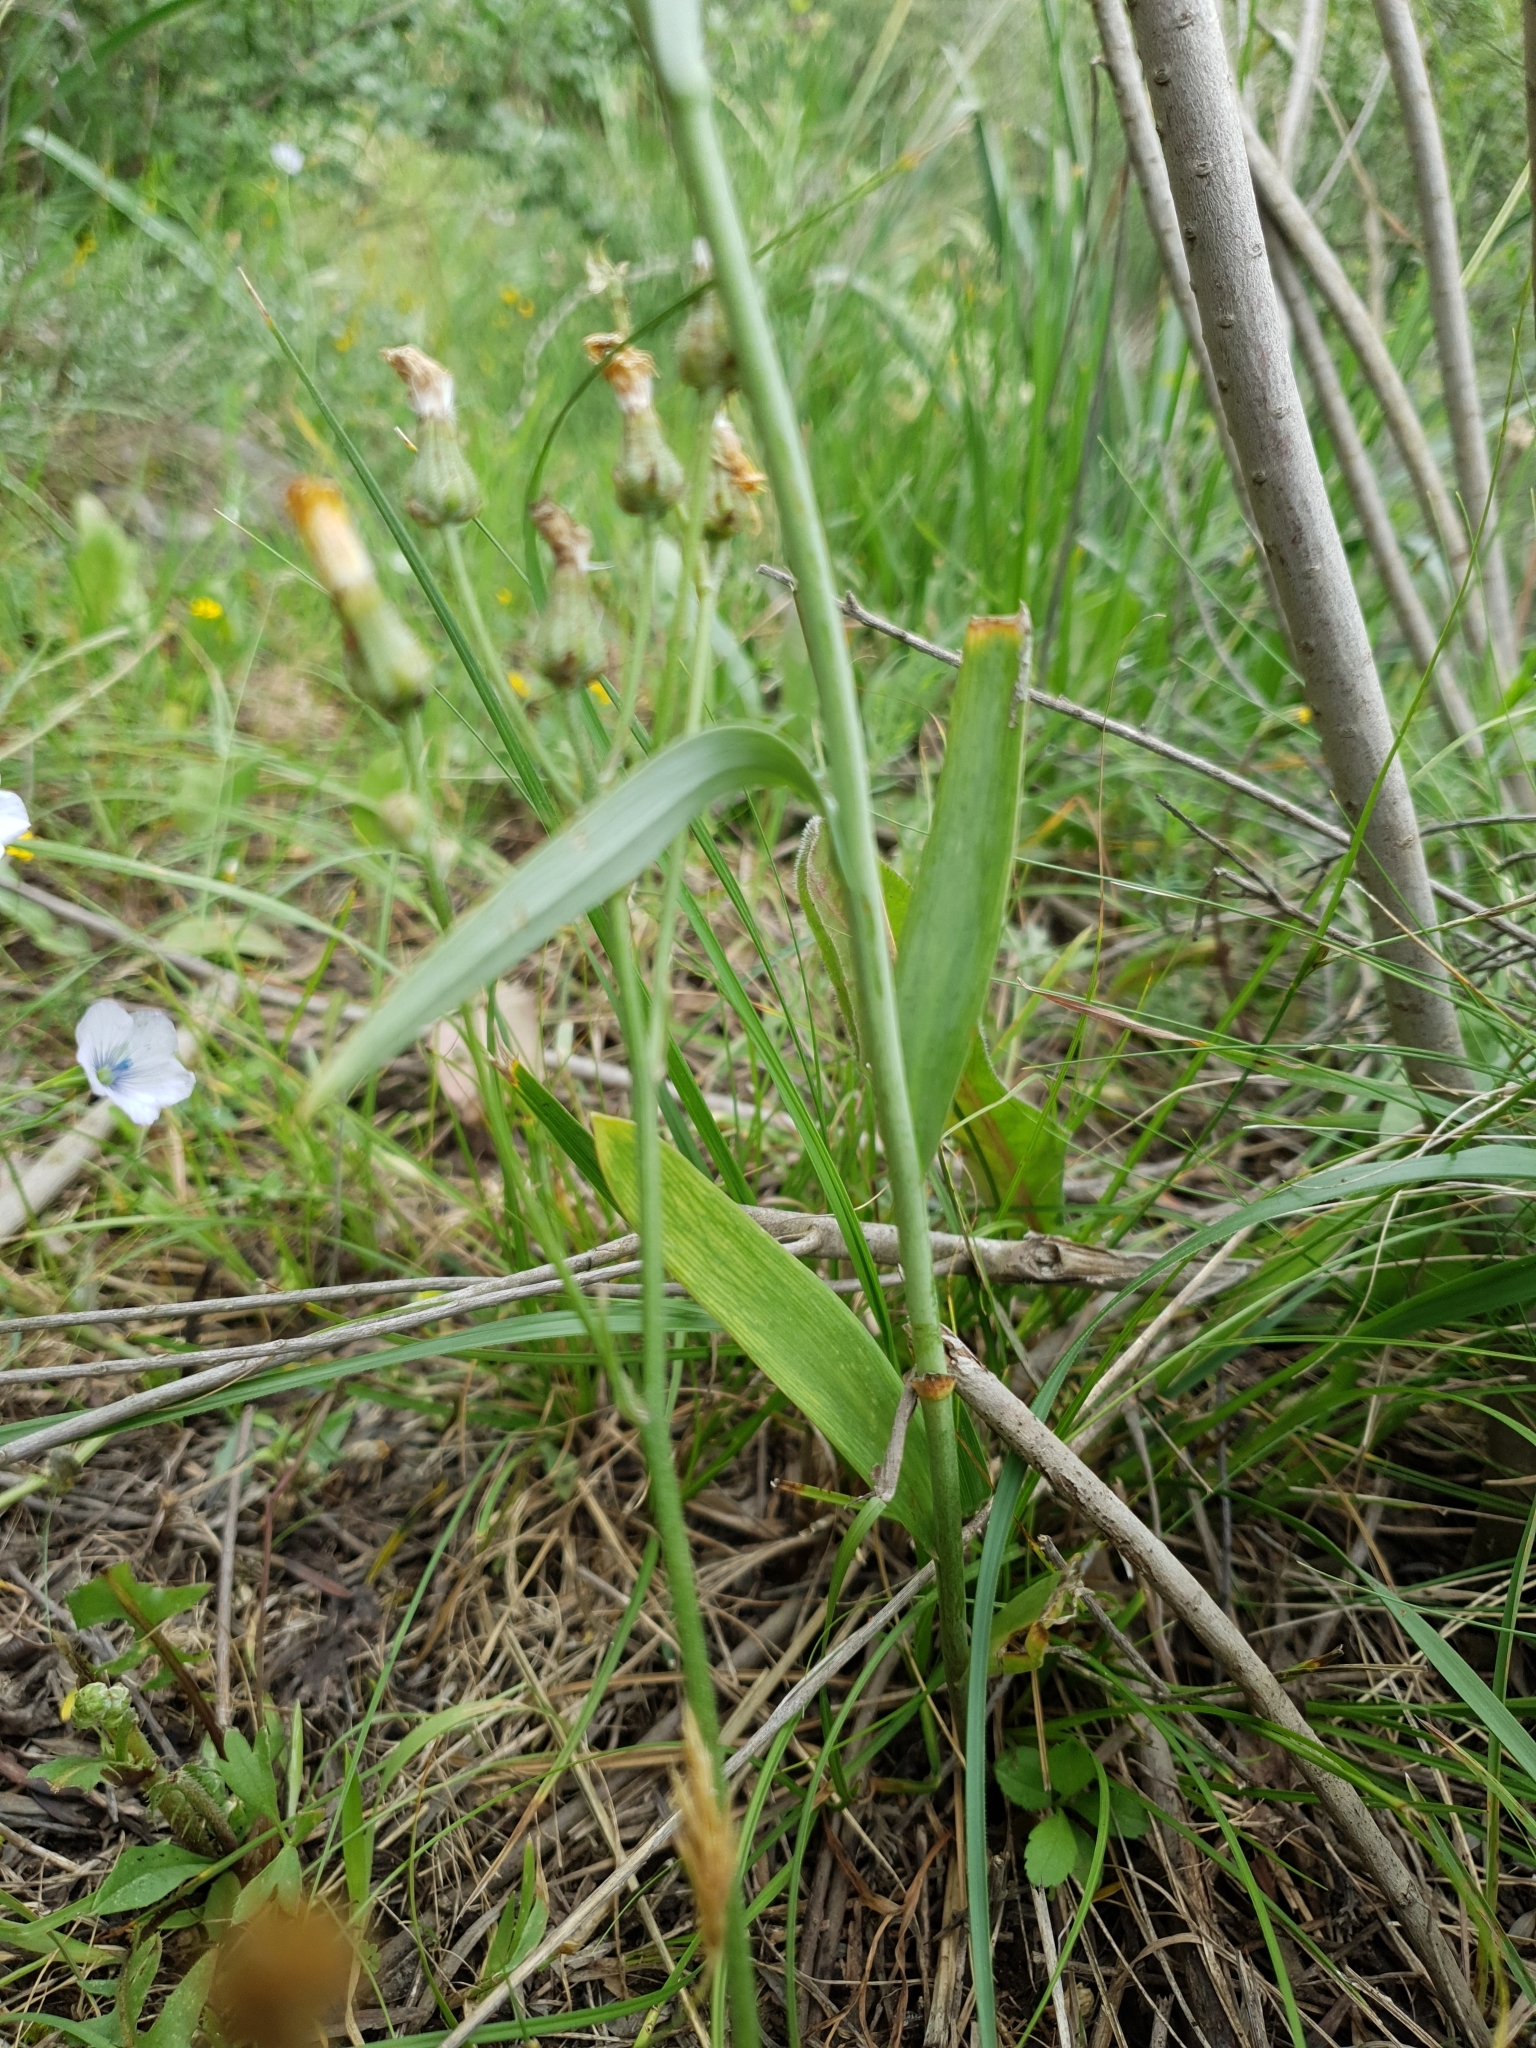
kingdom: Plantae
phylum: Tracheophyta
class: Liliopsida
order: Liliales
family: Liliaceae
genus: Fritillaria
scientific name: Fritillaria oranensis
